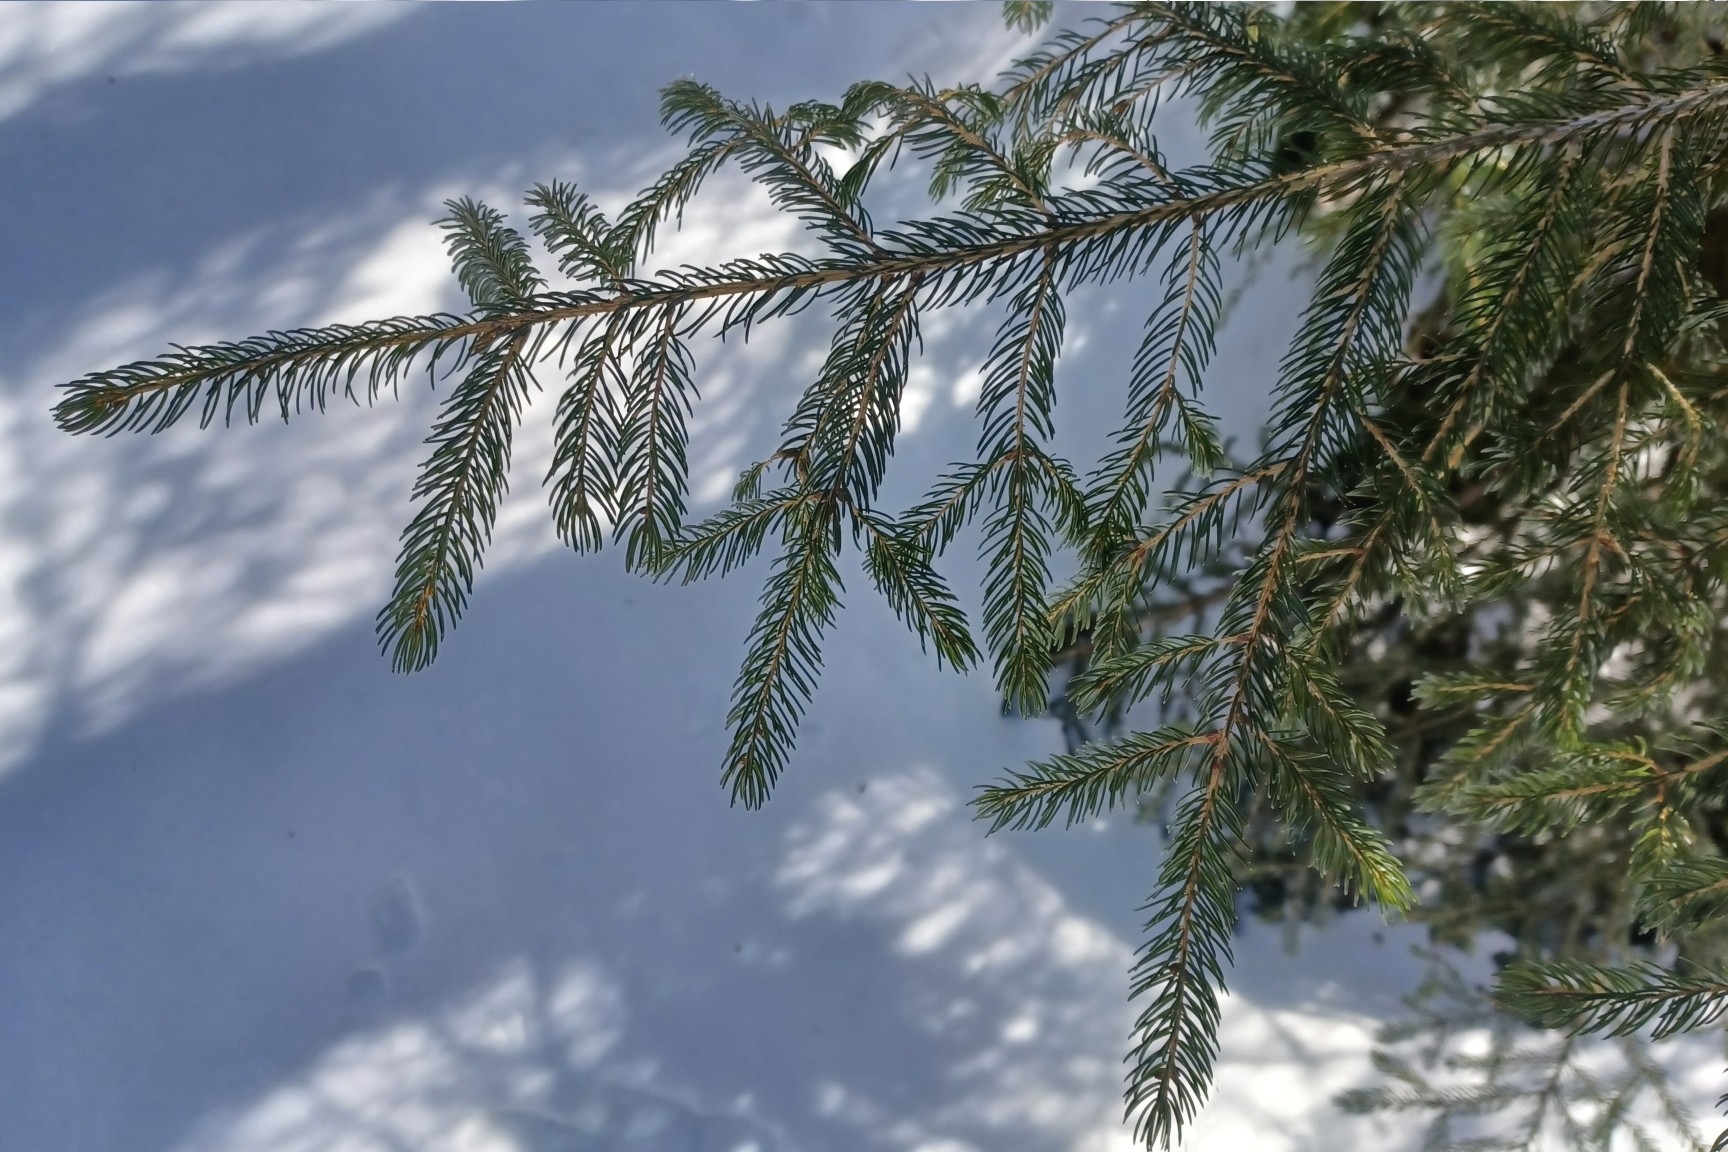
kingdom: Plantae
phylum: Tracheophyta
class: Pinopsida
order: Pinales
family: Pinaceae
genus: Picea
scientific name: Picea rubens
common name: Red spruce
